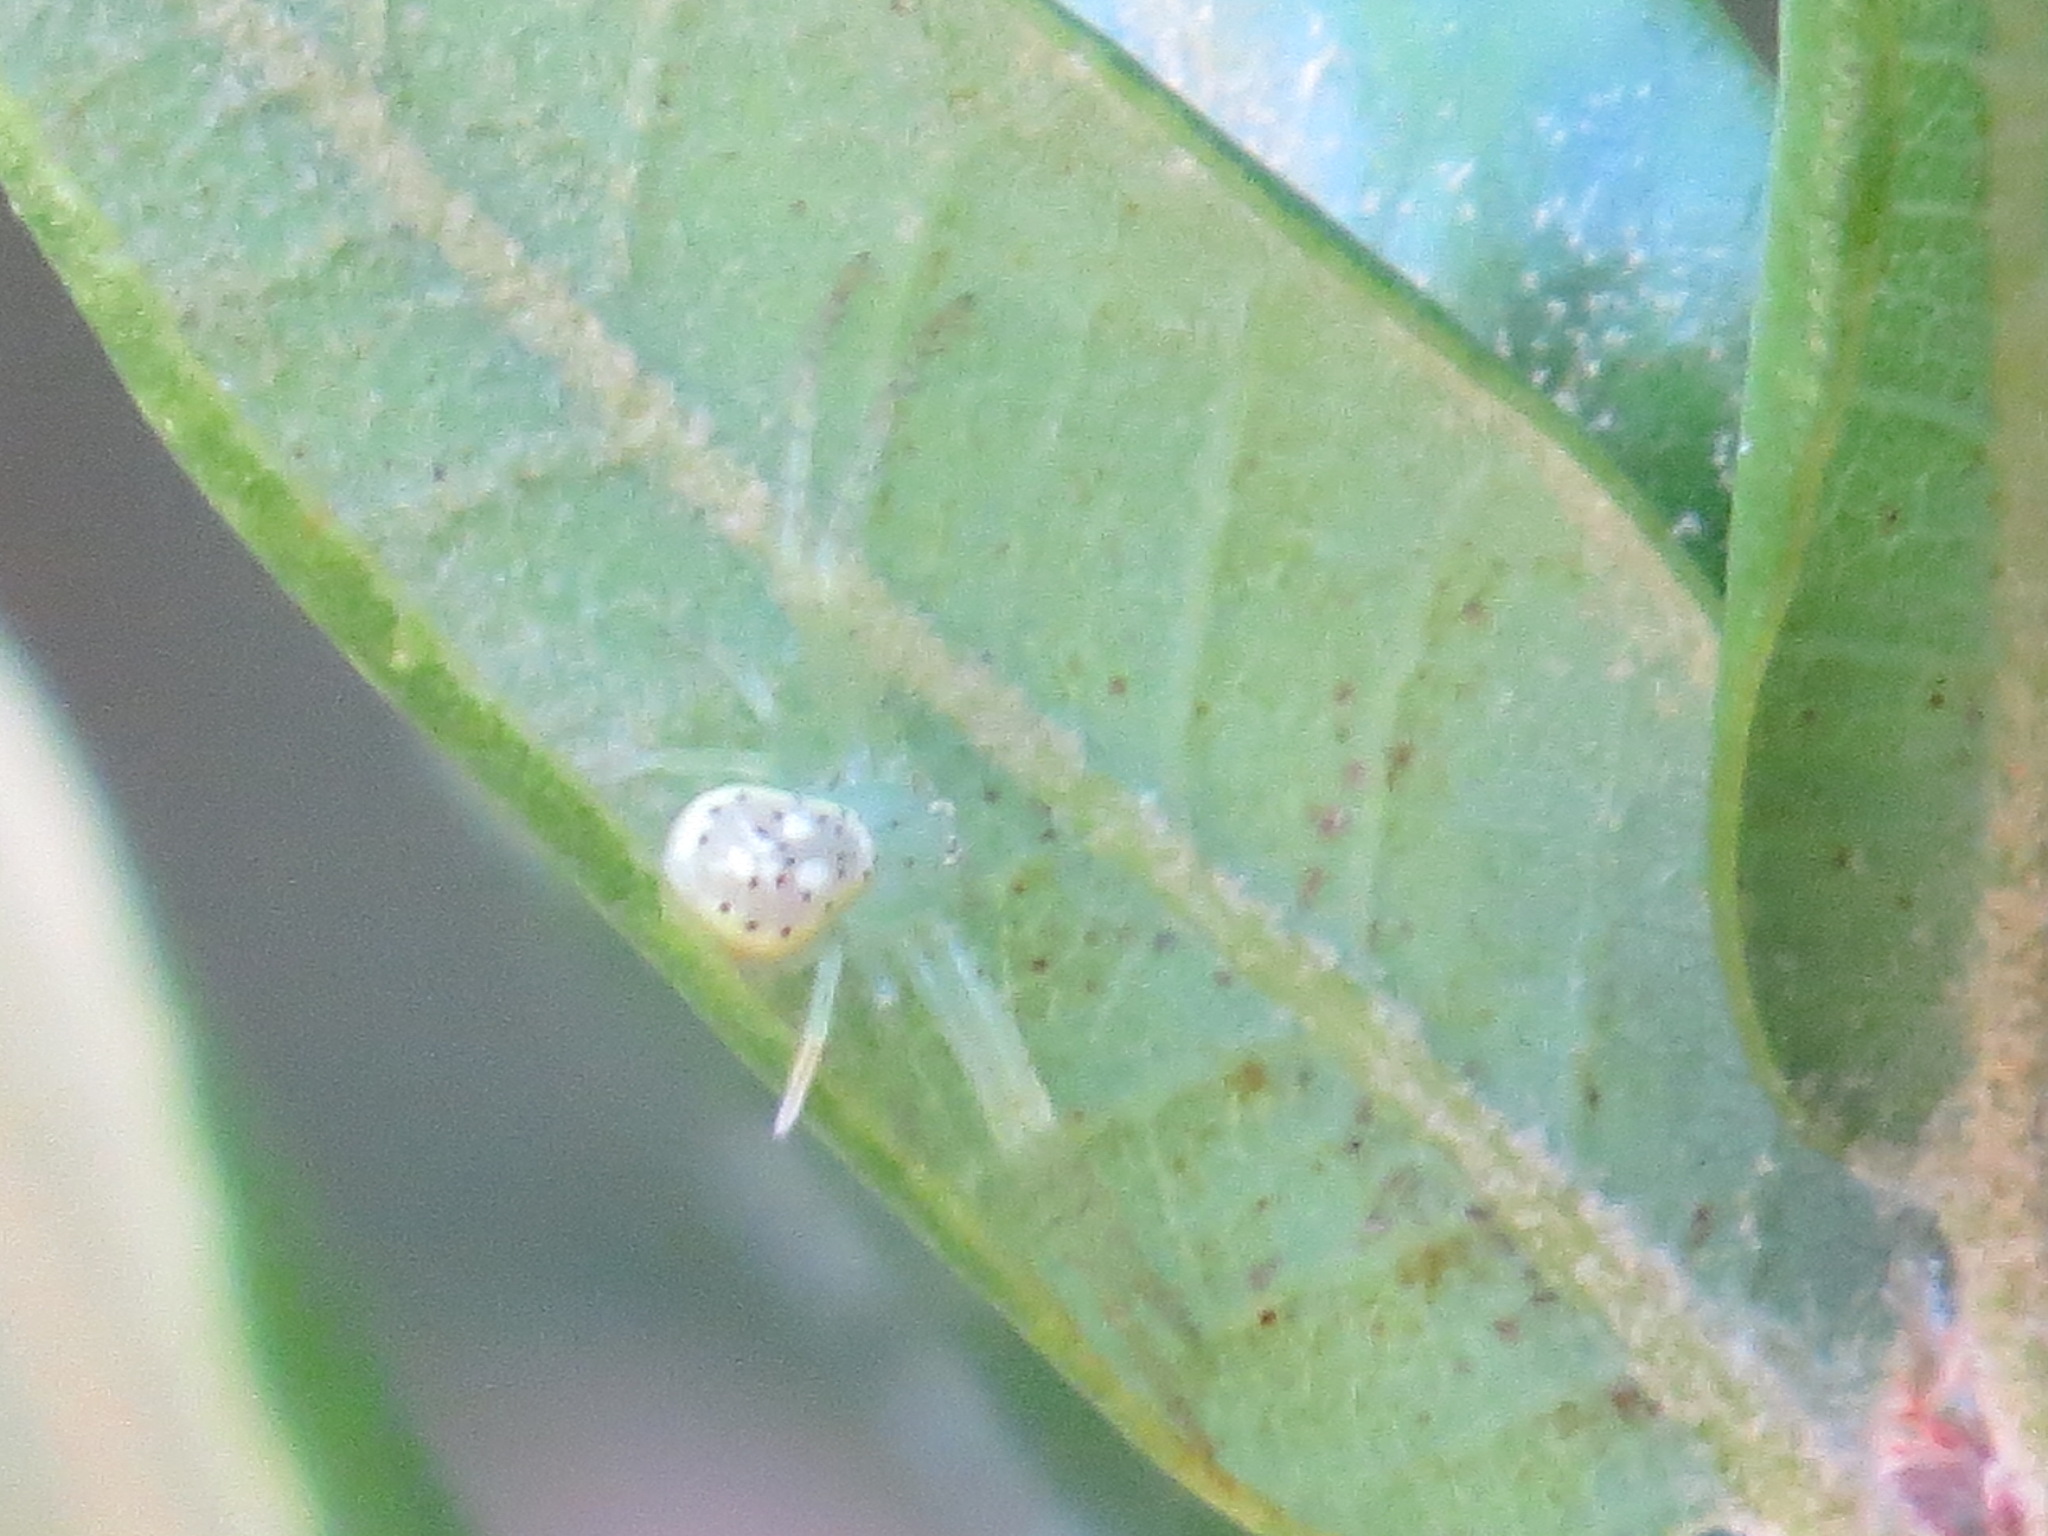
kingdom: Animalia
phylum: Arthropoda
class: Arachnida
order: Araneae
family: Thomisidae
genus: Diaea
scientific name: Diaea livens
